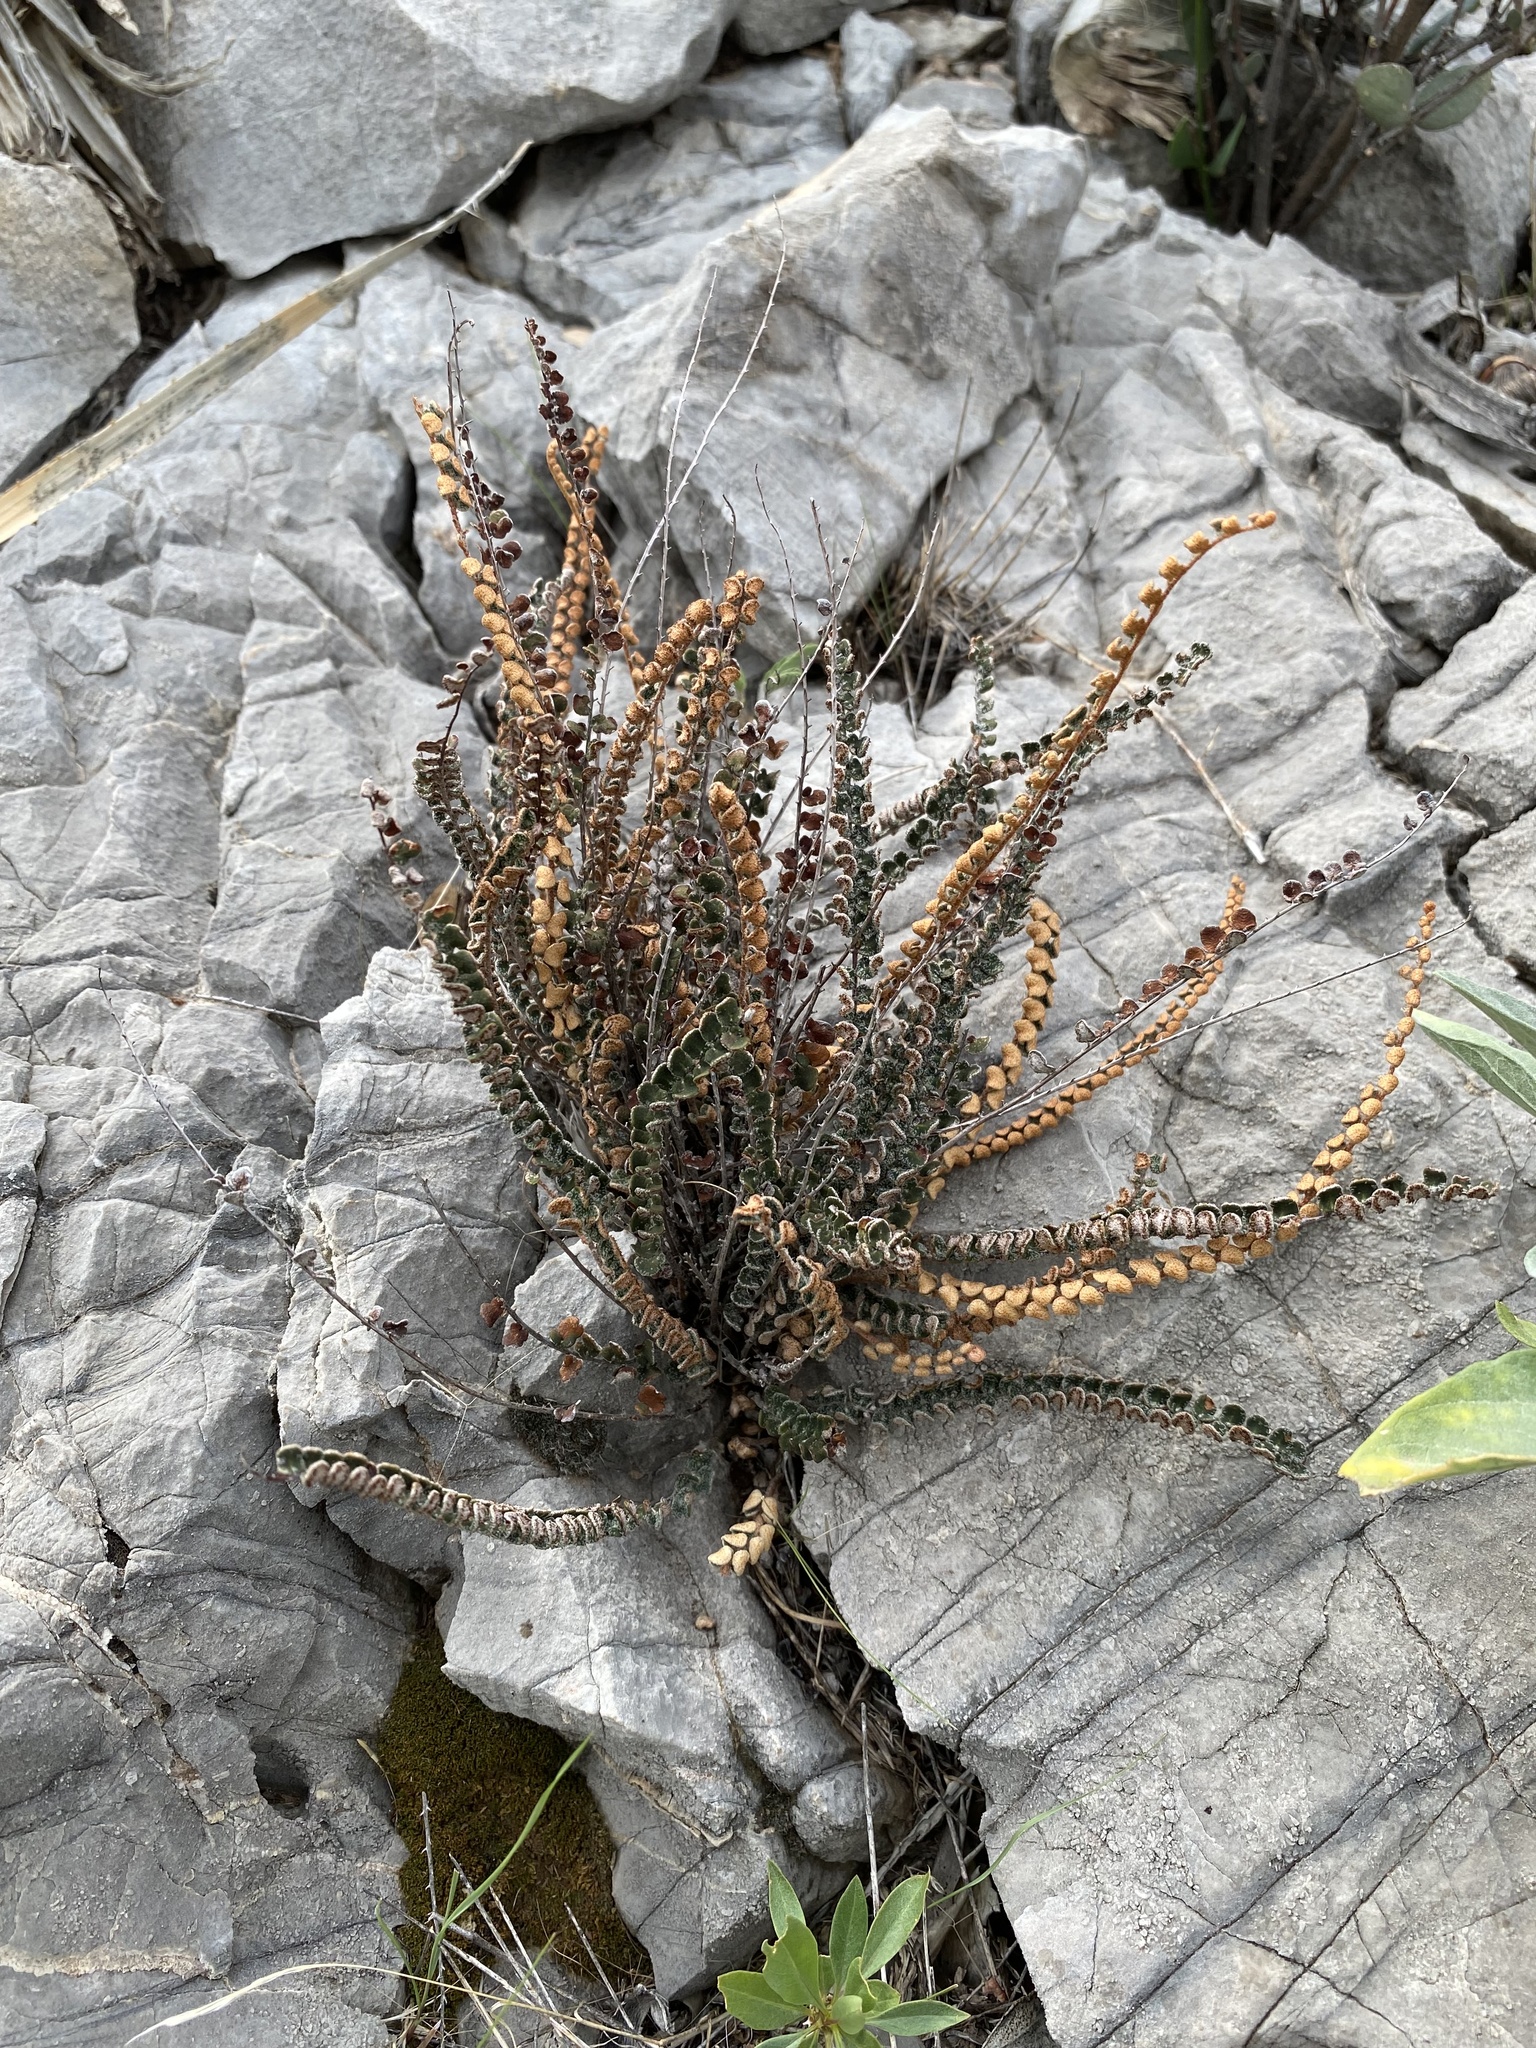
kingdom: Plantae
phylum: Tracheophyta
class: Polypodiopsida
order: Polypodiales
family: Pteridaceae
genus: Astrolepis
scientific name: Astrolepis cochisensis
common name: Scaly cloak fern
